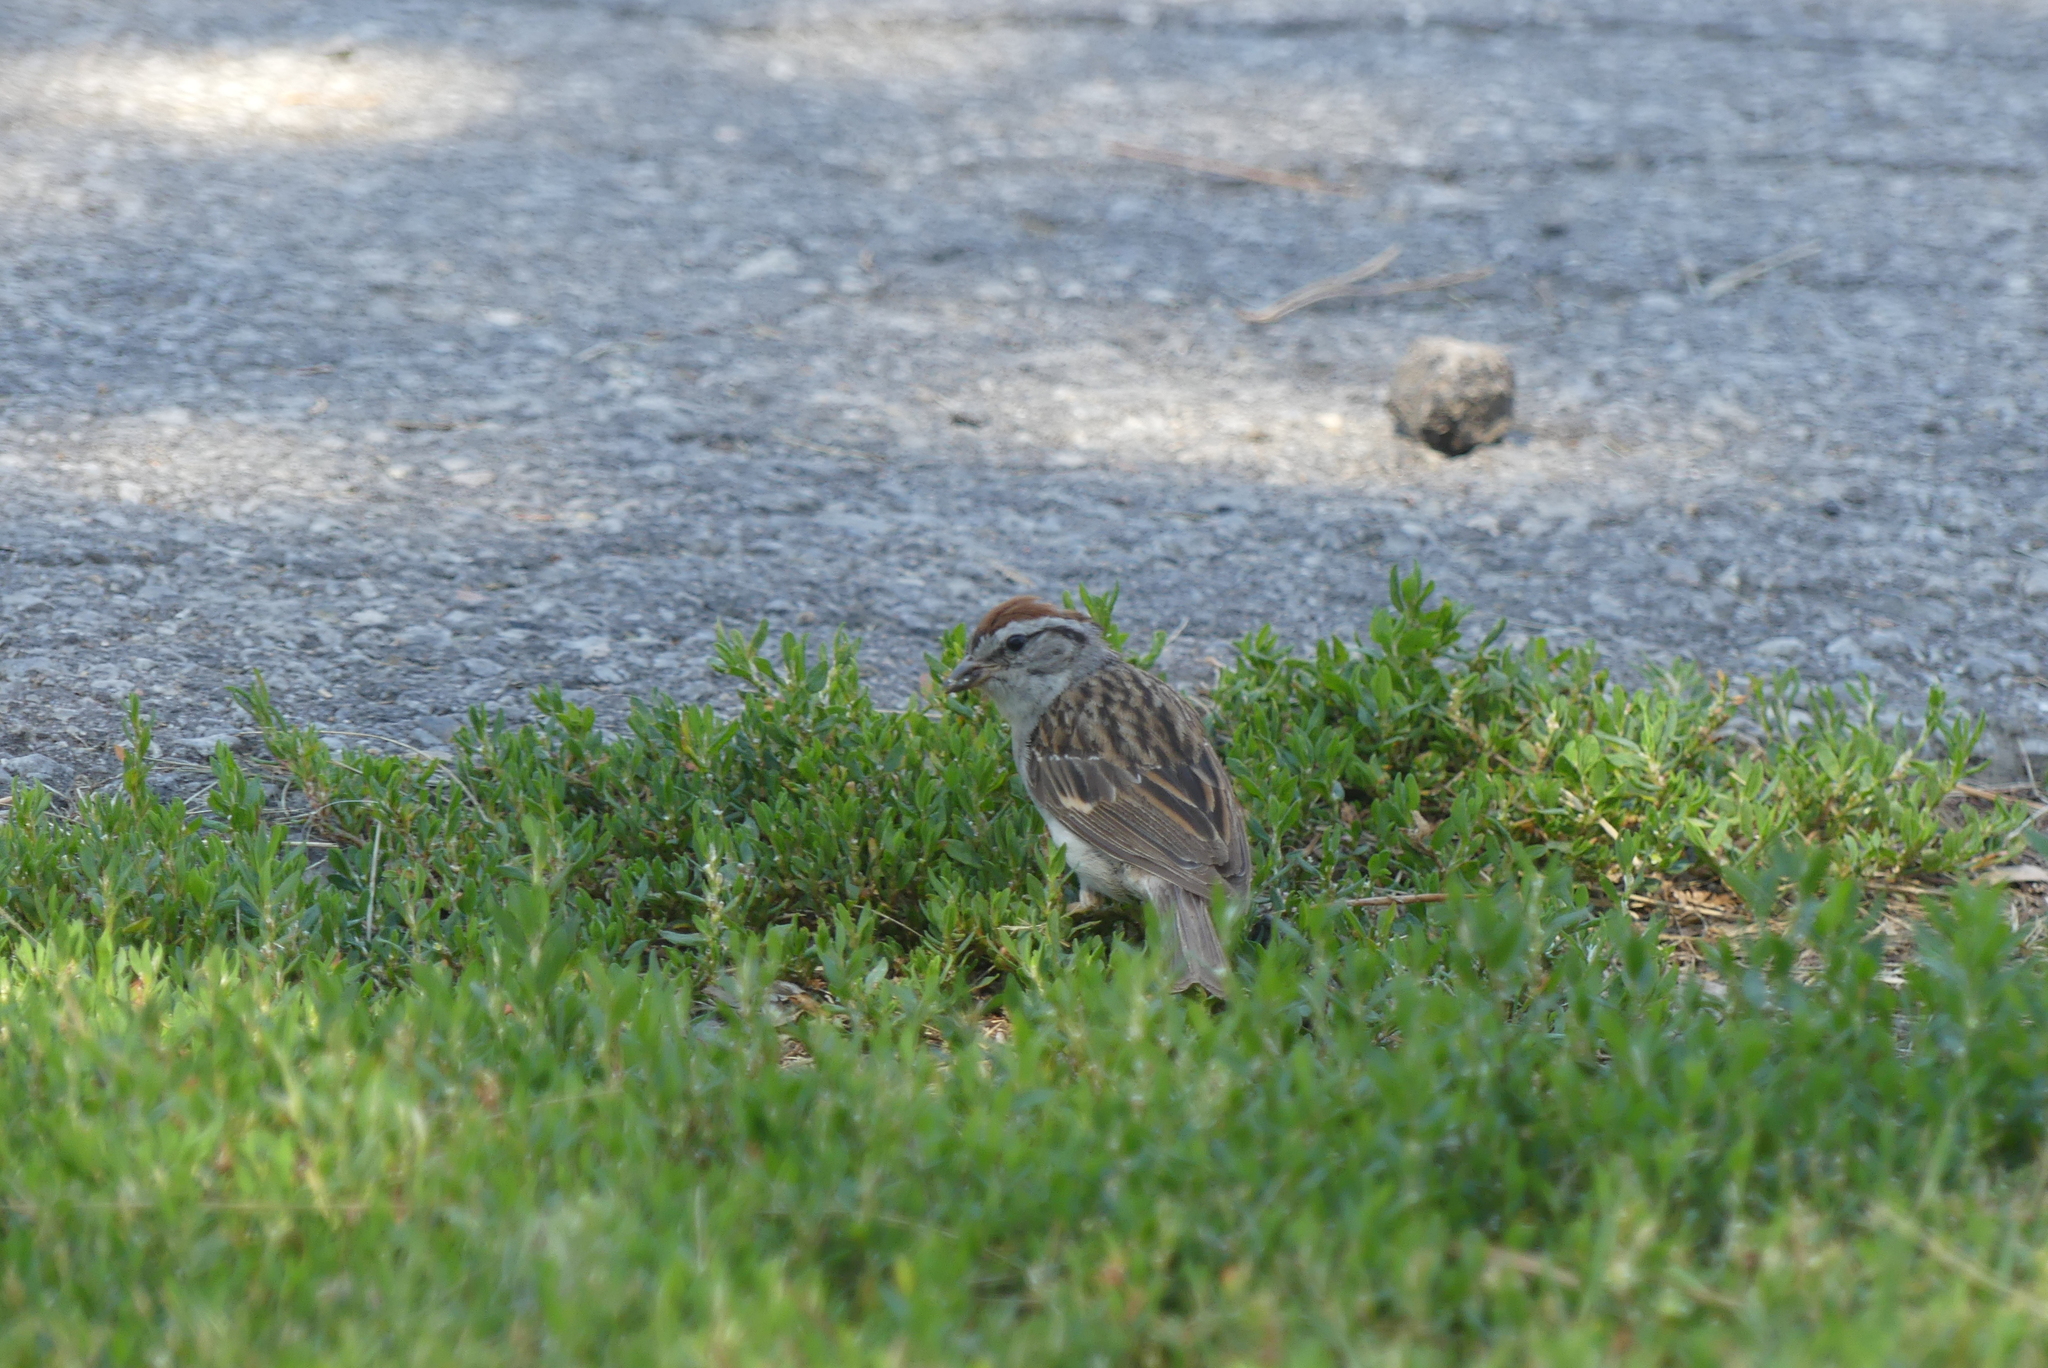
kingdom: Animalia
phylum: Chordata
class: Aves
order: Passeriformes
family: Passerellidae
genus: Spizella
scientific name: Spizella passerina
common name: Chipping sparrow
